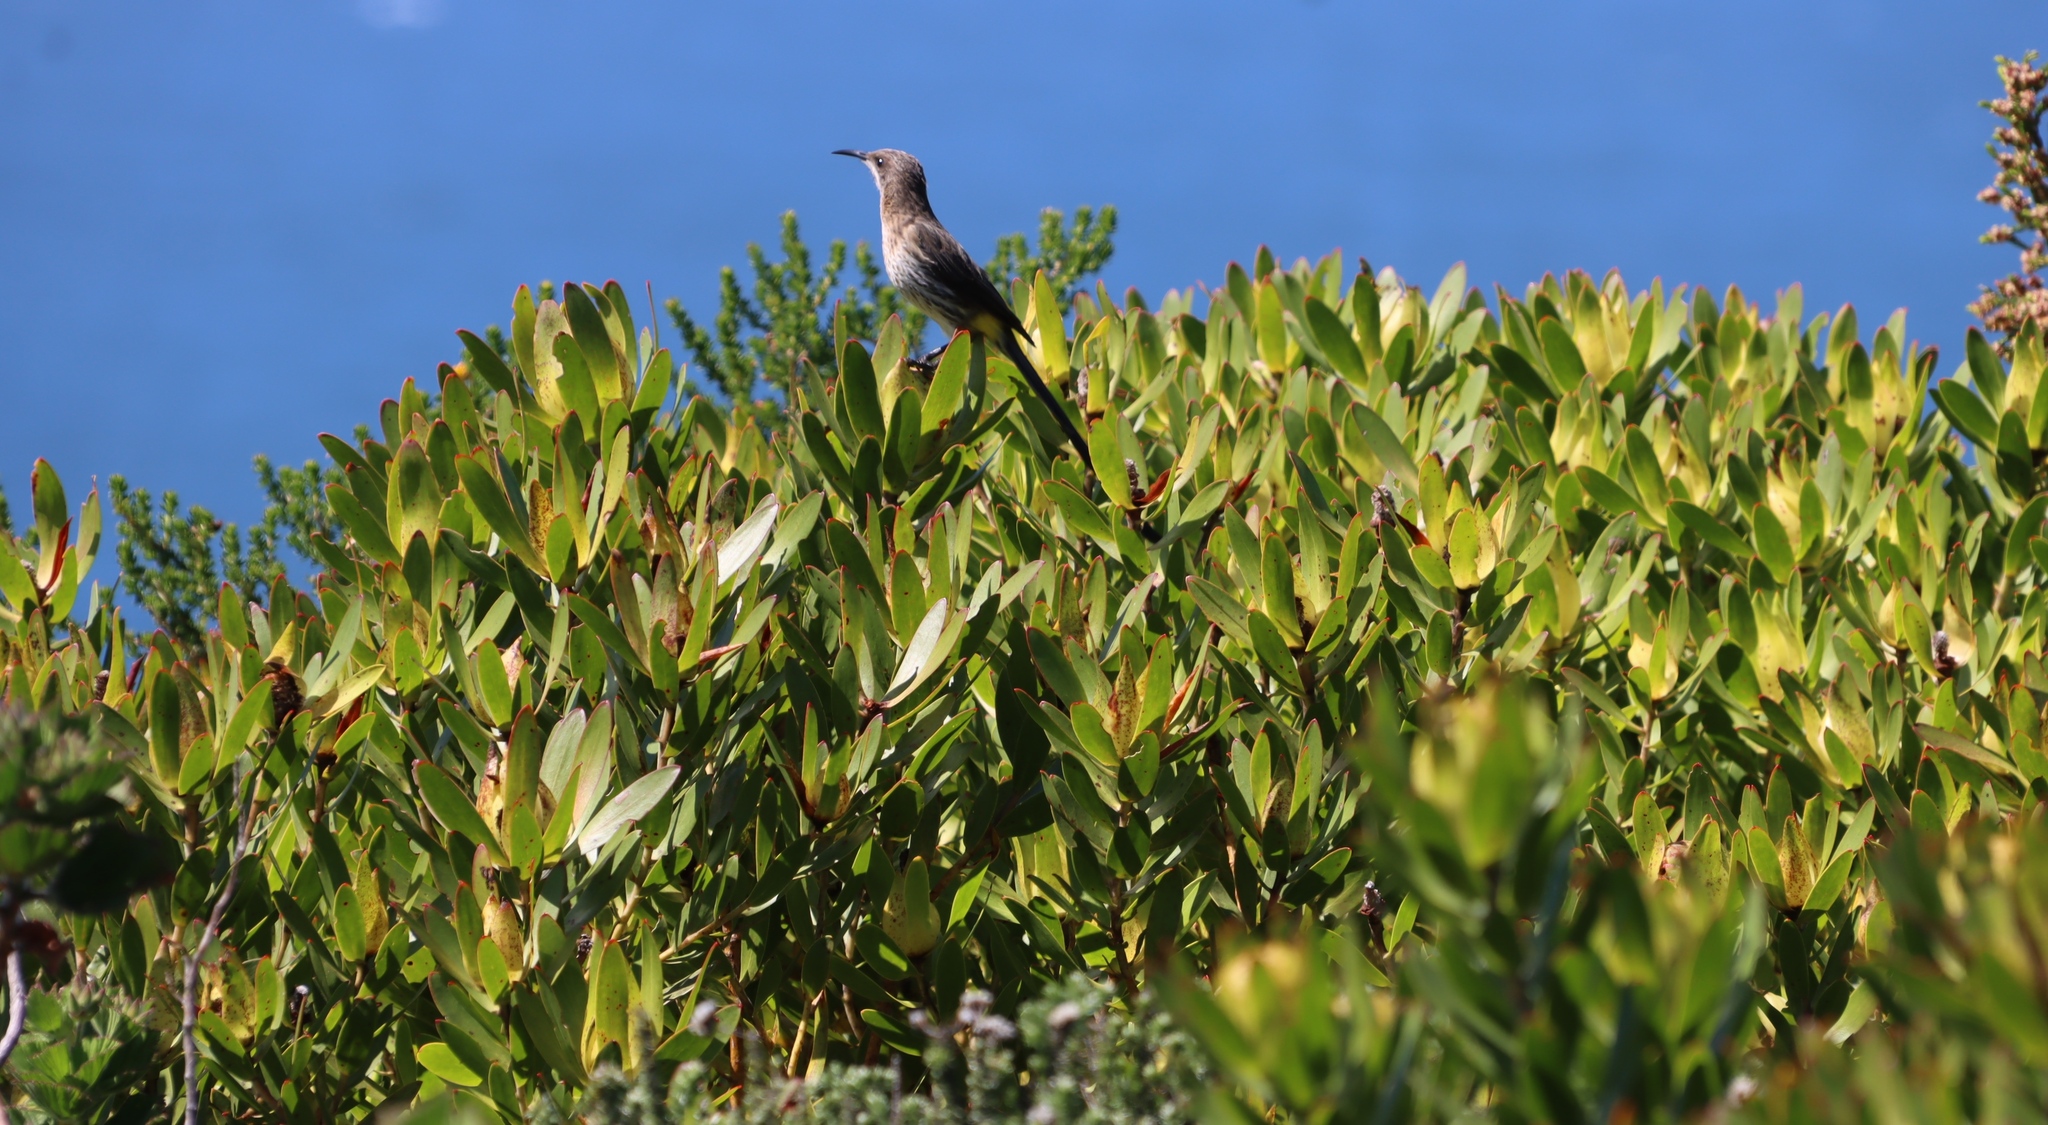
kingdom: Animalia
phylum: Chordata
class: Aves
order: Passeriformes
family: Promeropidae
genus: Promerops
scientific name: Promerops cafer
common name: Cape sugarbird
